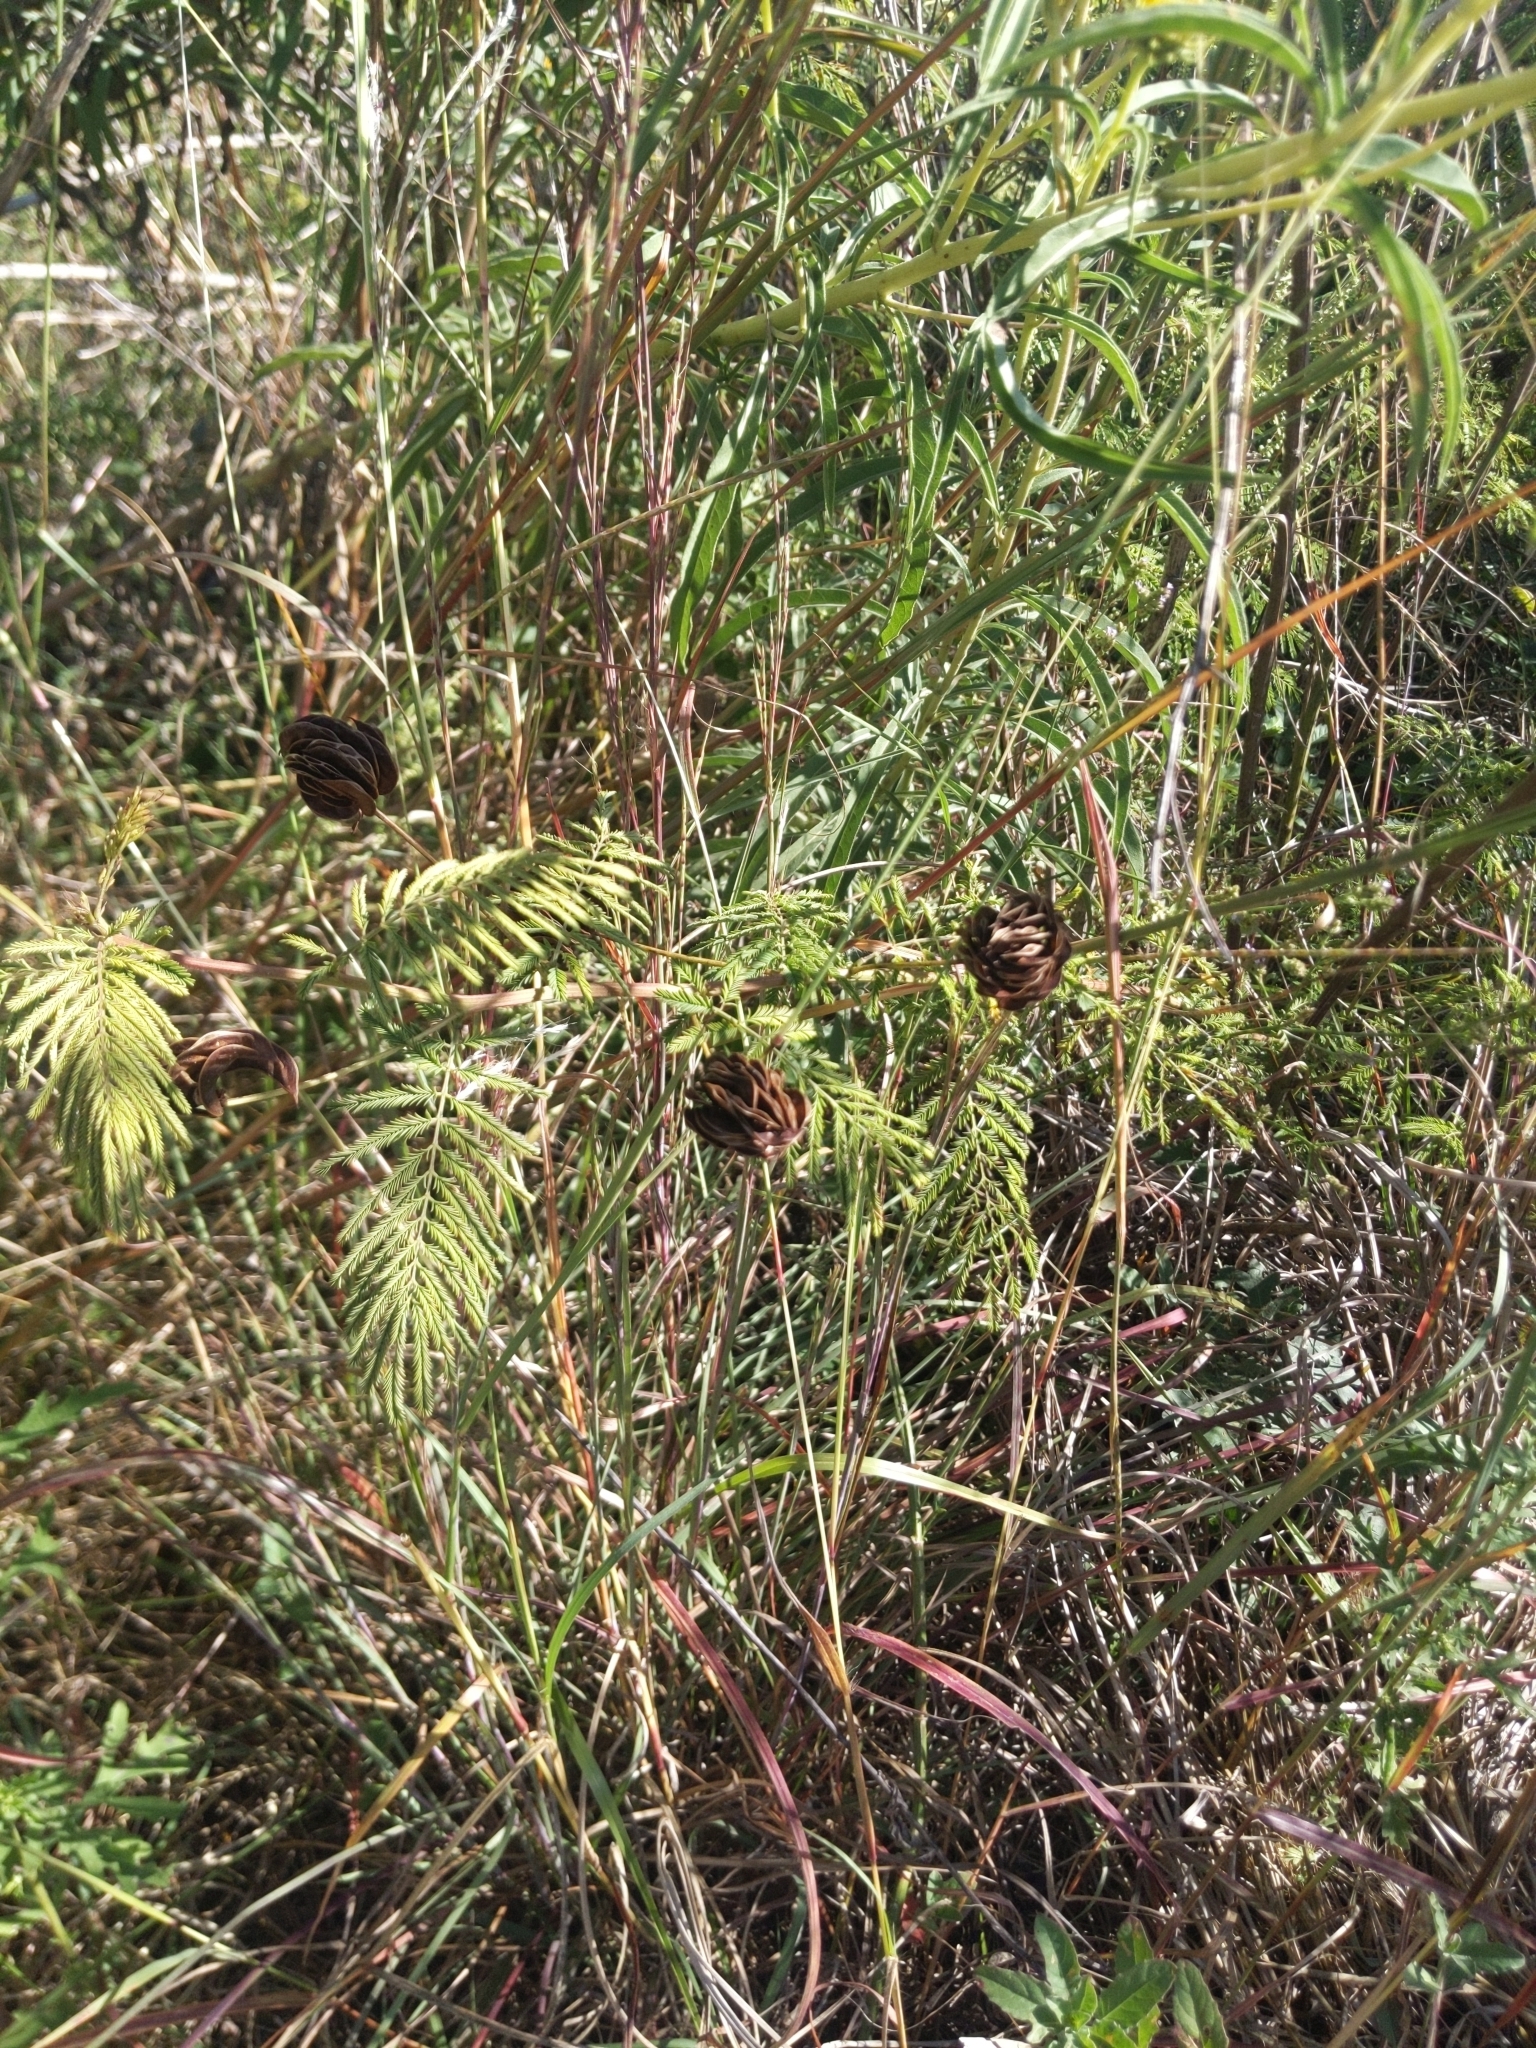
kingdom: Plantae
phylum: Tracheophyta
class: Magnoliopsida
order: Fabales
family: Fabaceae
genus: Desmanthus
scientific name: Desmanthus illinoensis
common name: Illinois bundle-flower
